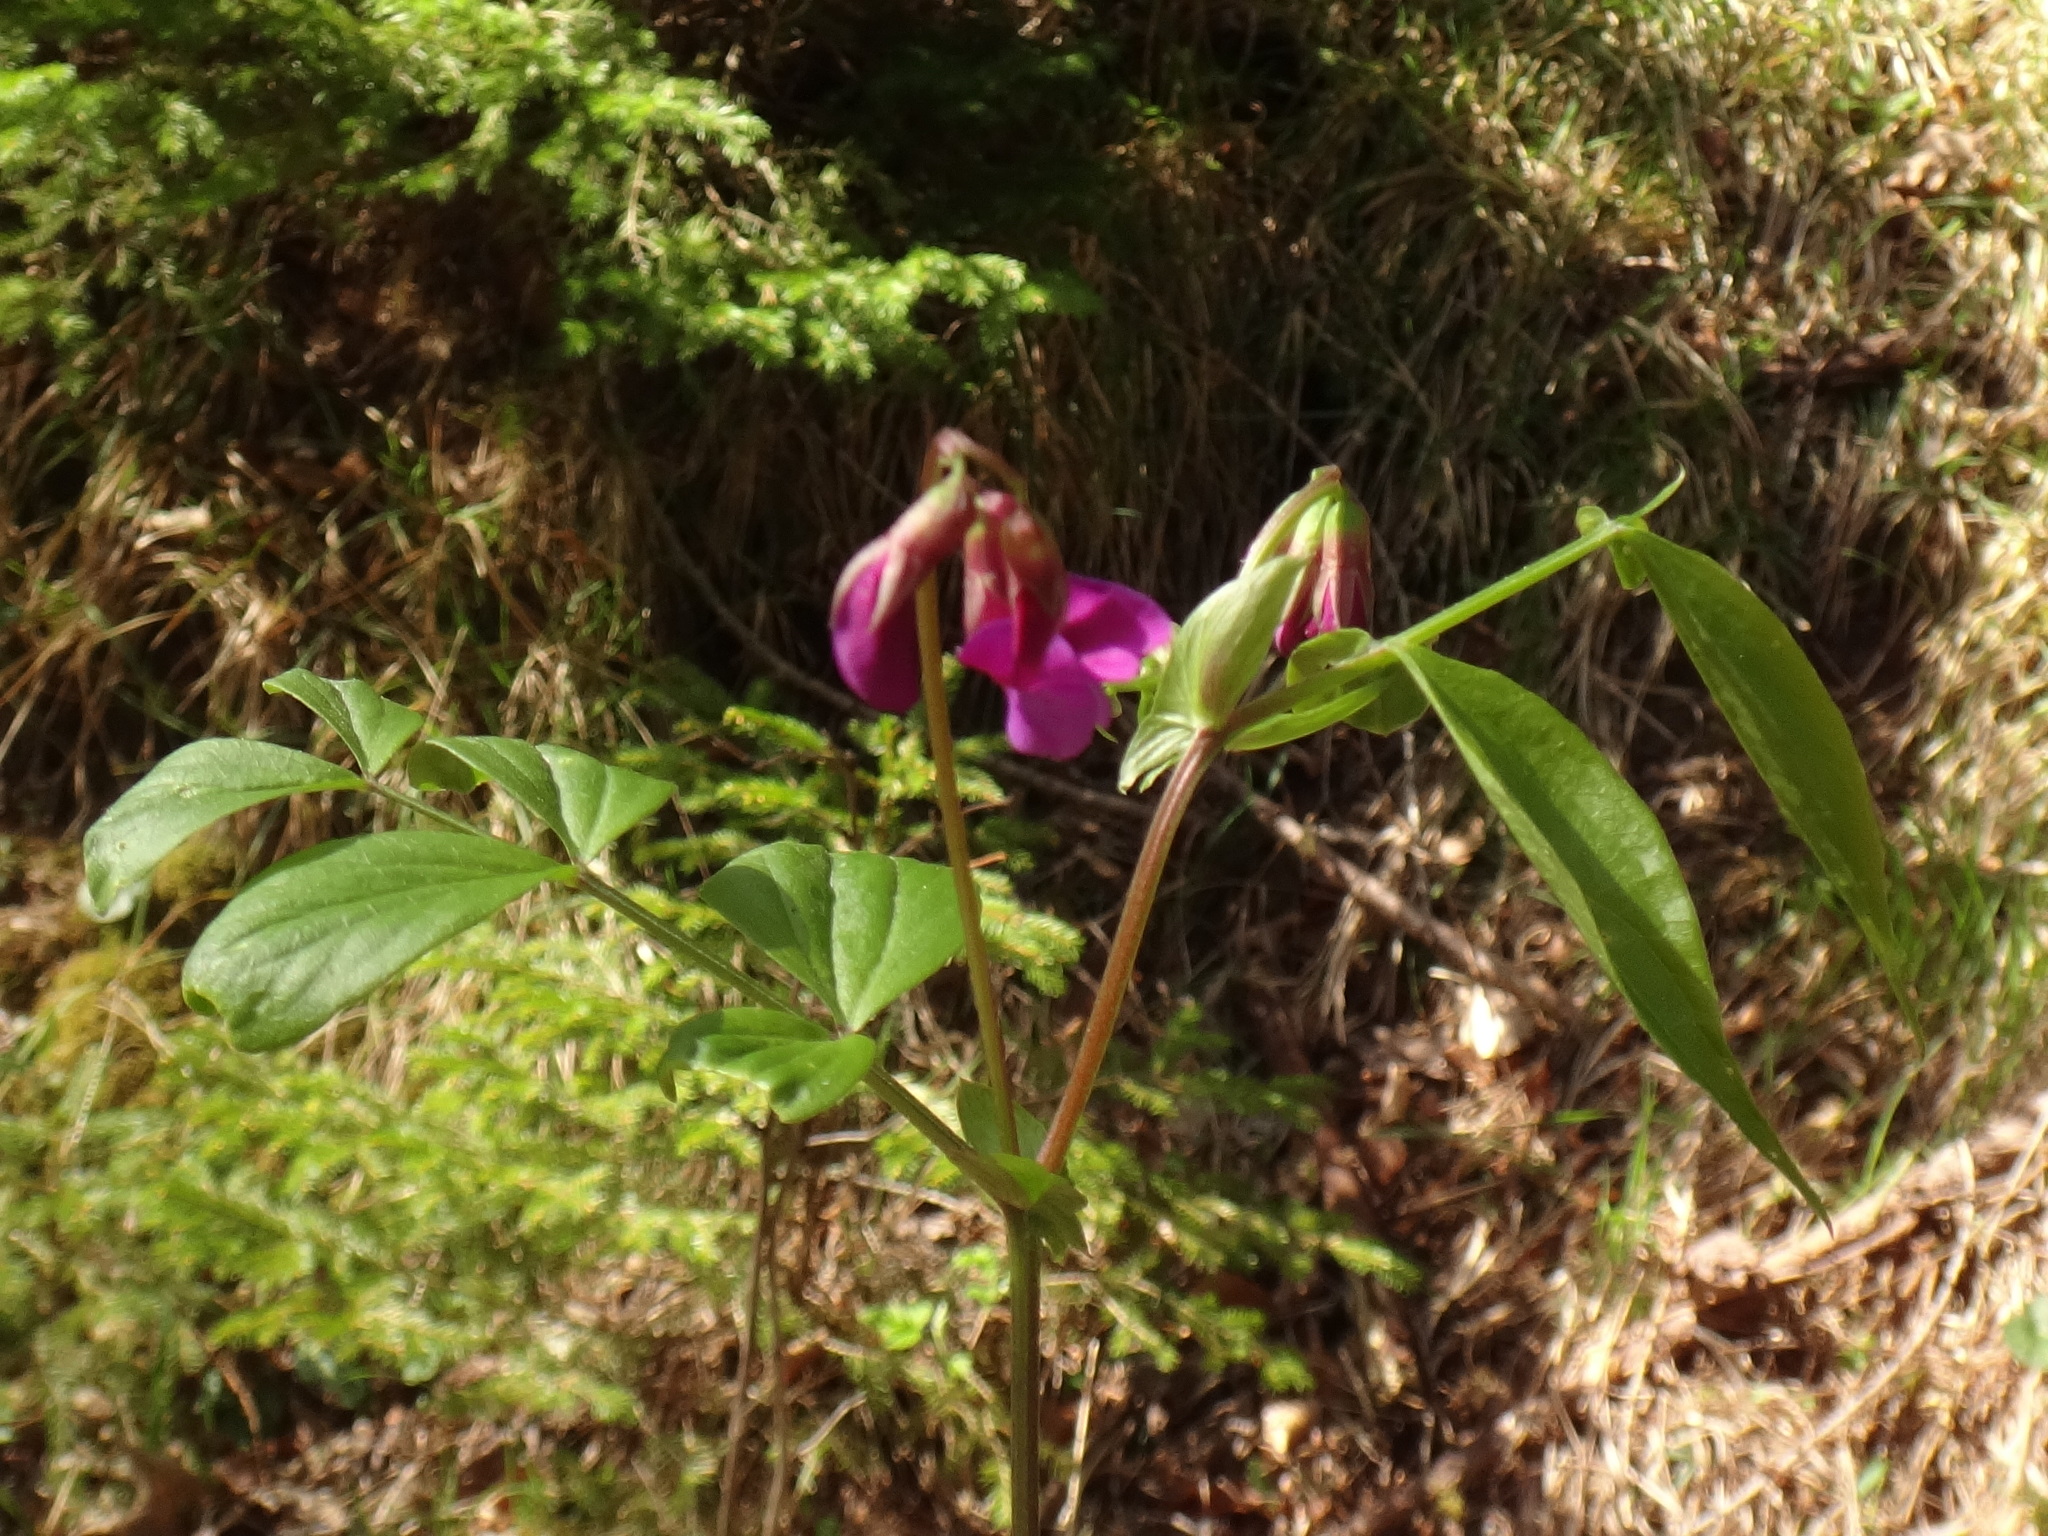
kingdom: Plantae
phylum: Tracheophyta
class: Magnoliopsida
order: Fabales
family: Fabaceae
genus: Lathyrus
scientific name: Lathyrus vernus
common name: Spring pea
